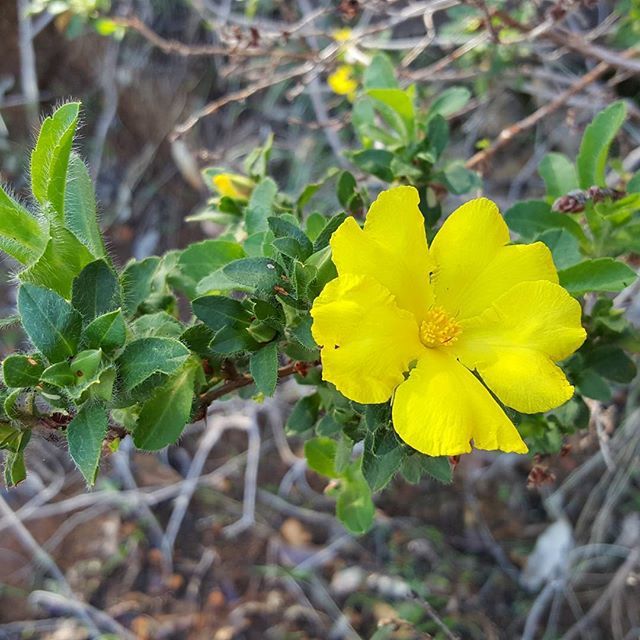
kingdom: Plantae
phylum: Tracheophyta
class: Magnoliopsida
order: Dilleniales
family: Dilleniaceae
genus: Hibbertia
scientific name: Hibbertia pilosa
